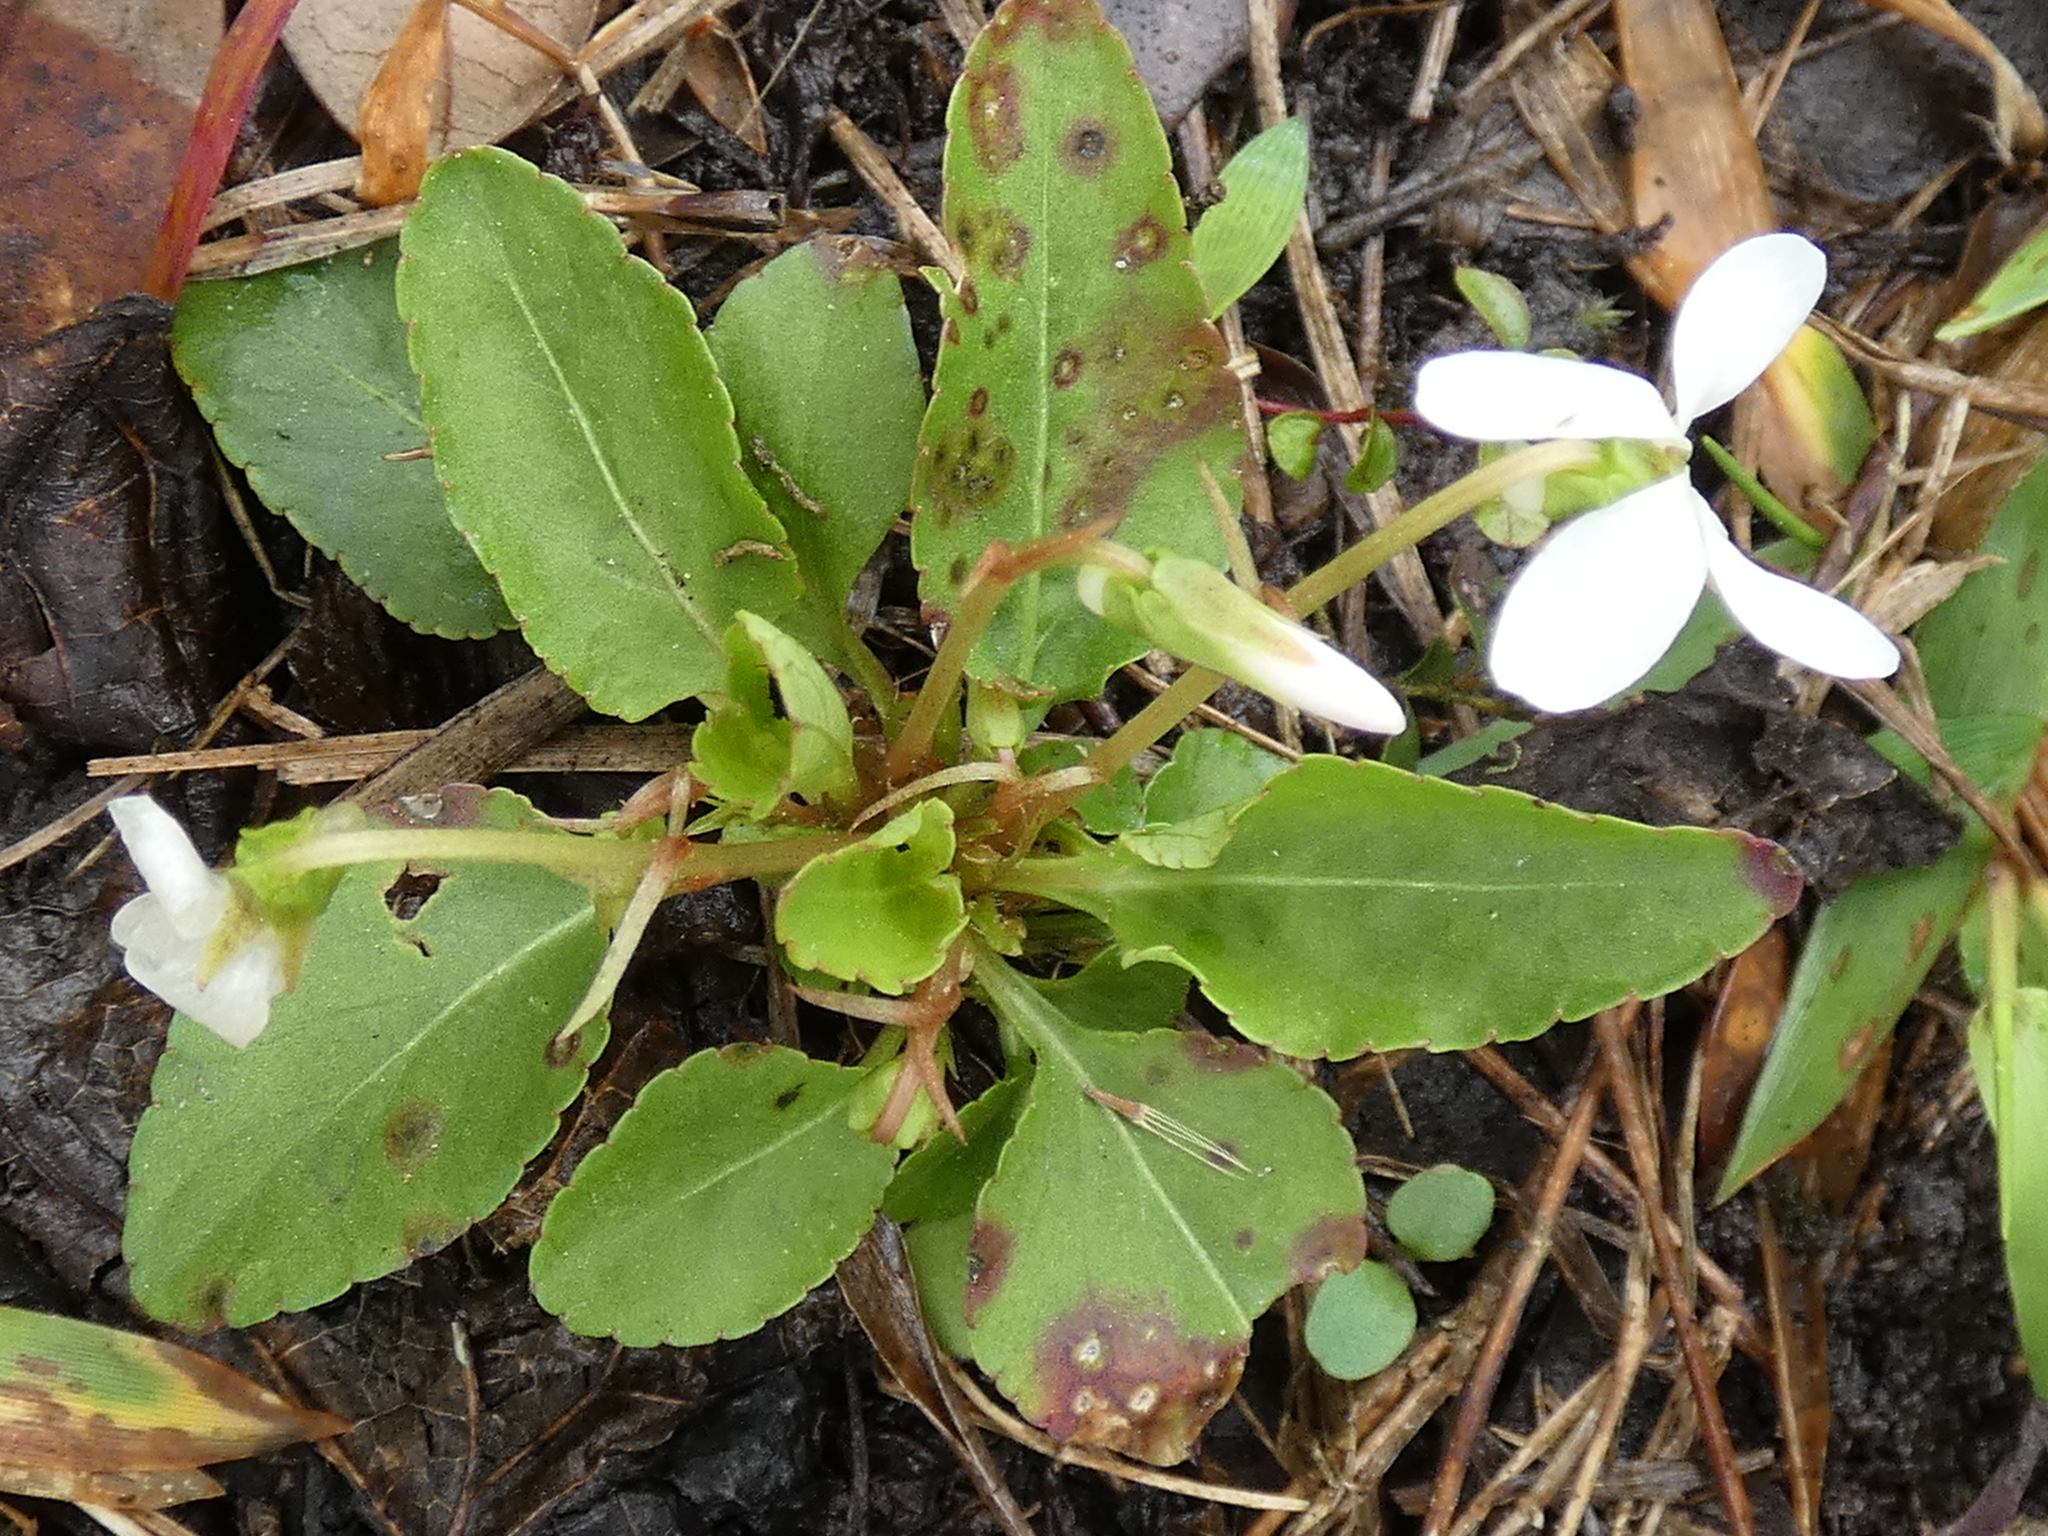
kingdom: Plantae
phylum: Tracheophyta
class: Magnoliopsida
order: Malpighiales
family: Violaceae
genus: Viola
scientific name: Viola primulifolia
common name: Primrose-leaf violet
